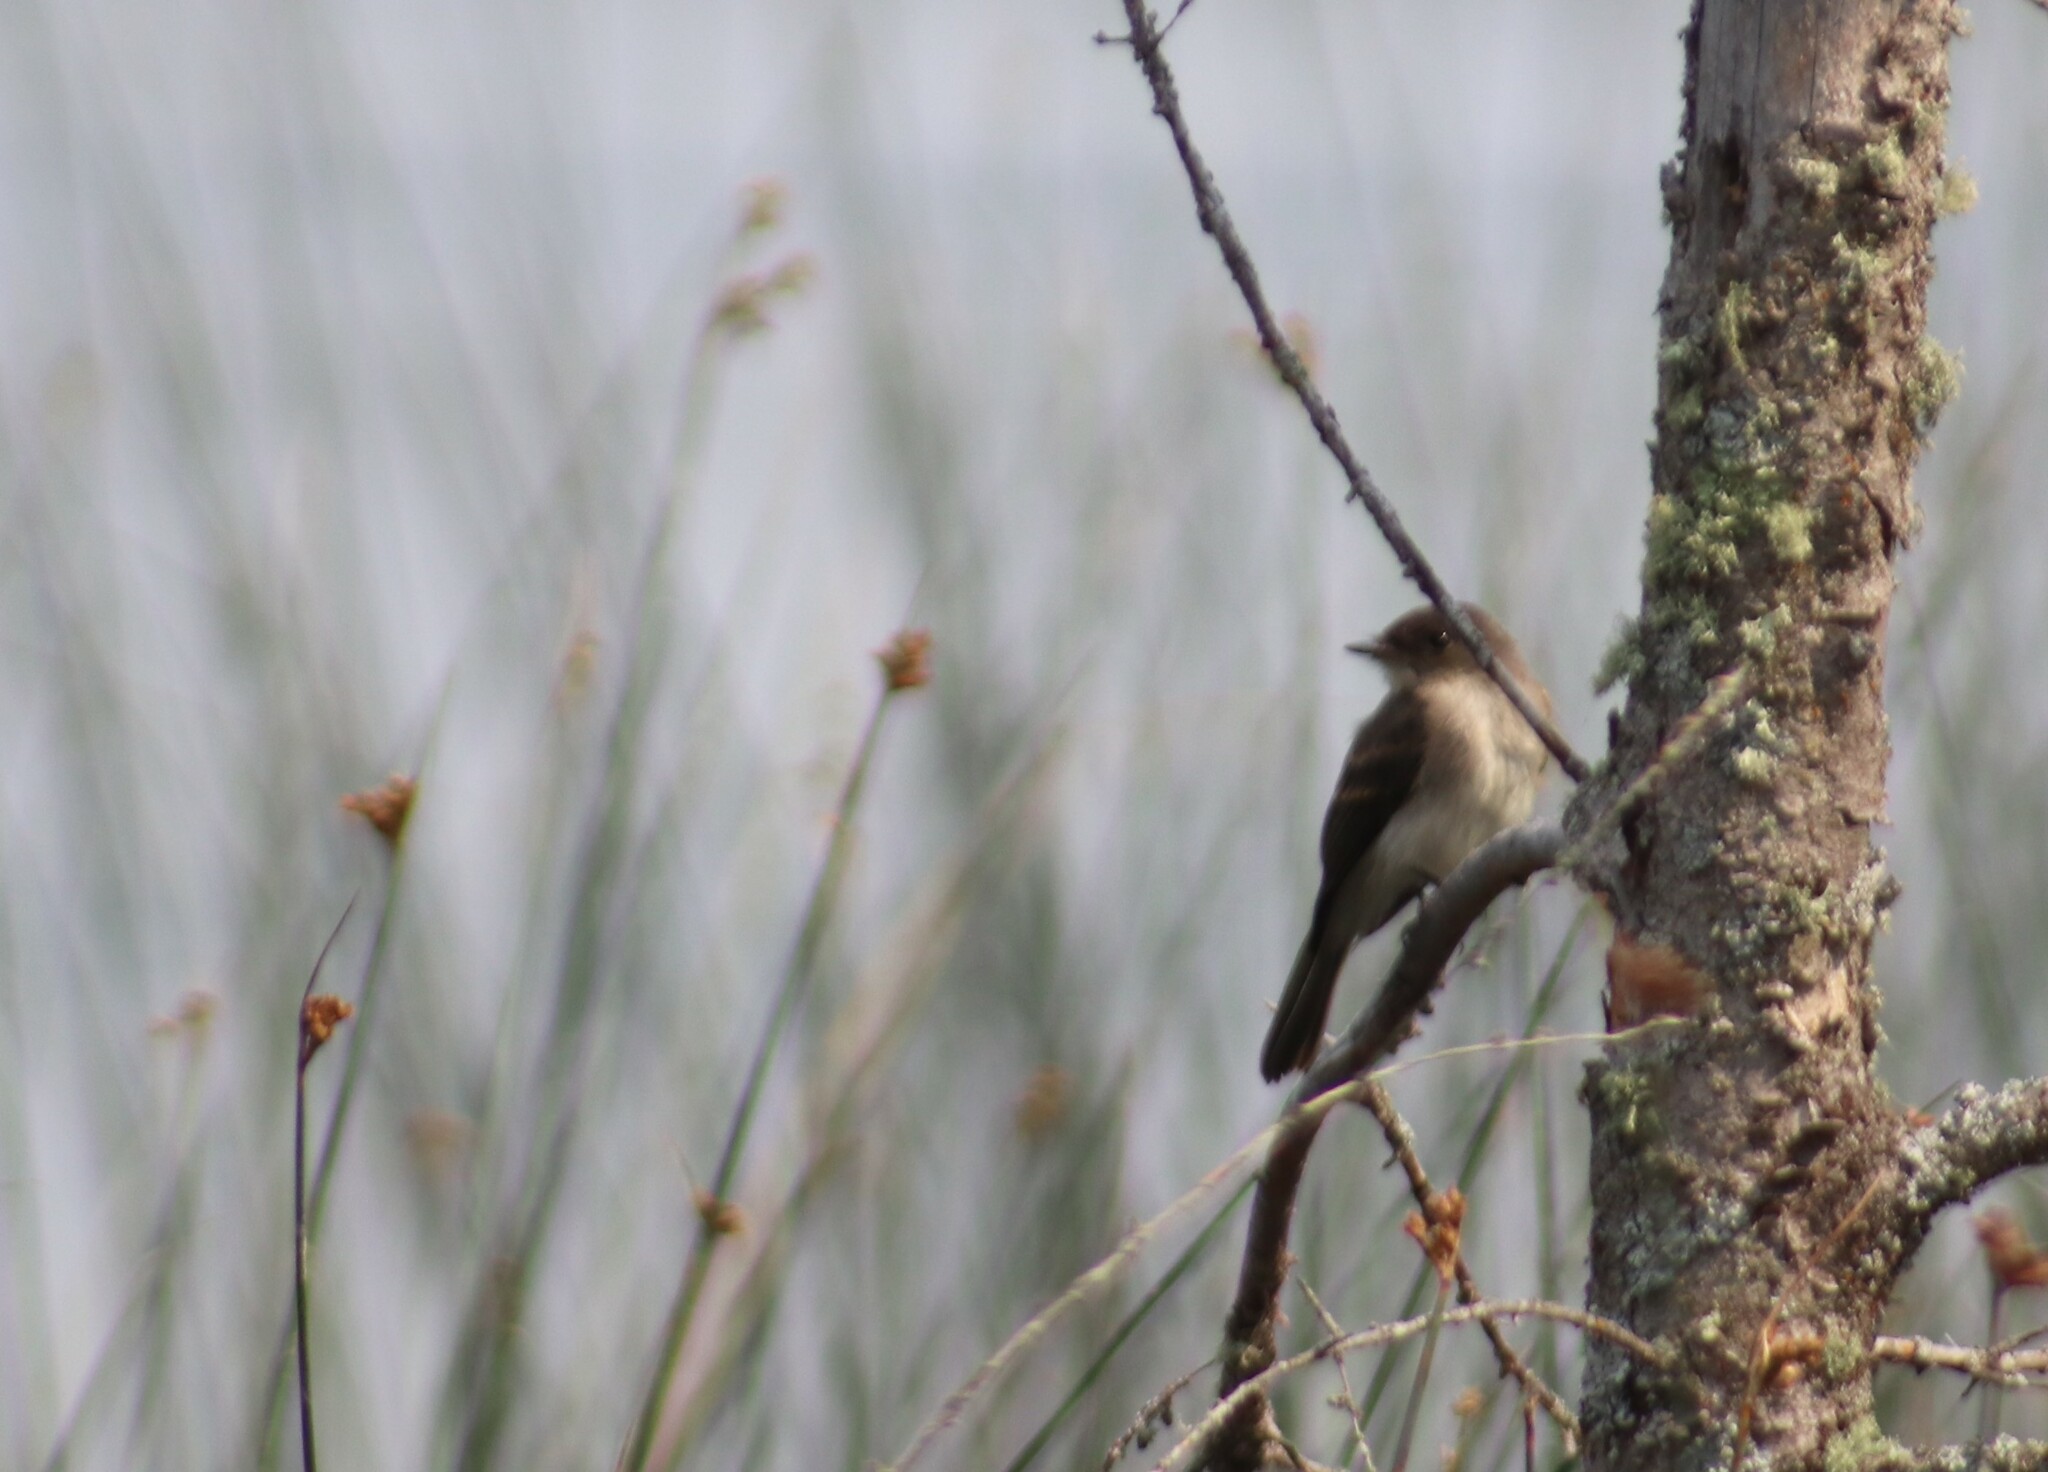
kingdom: Animalia
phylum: Chordata
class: Aves
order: Passeriformes
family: Tyrannidae
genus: Sayornis
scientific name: Sayornis phoebe
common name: Eastern phoebe
